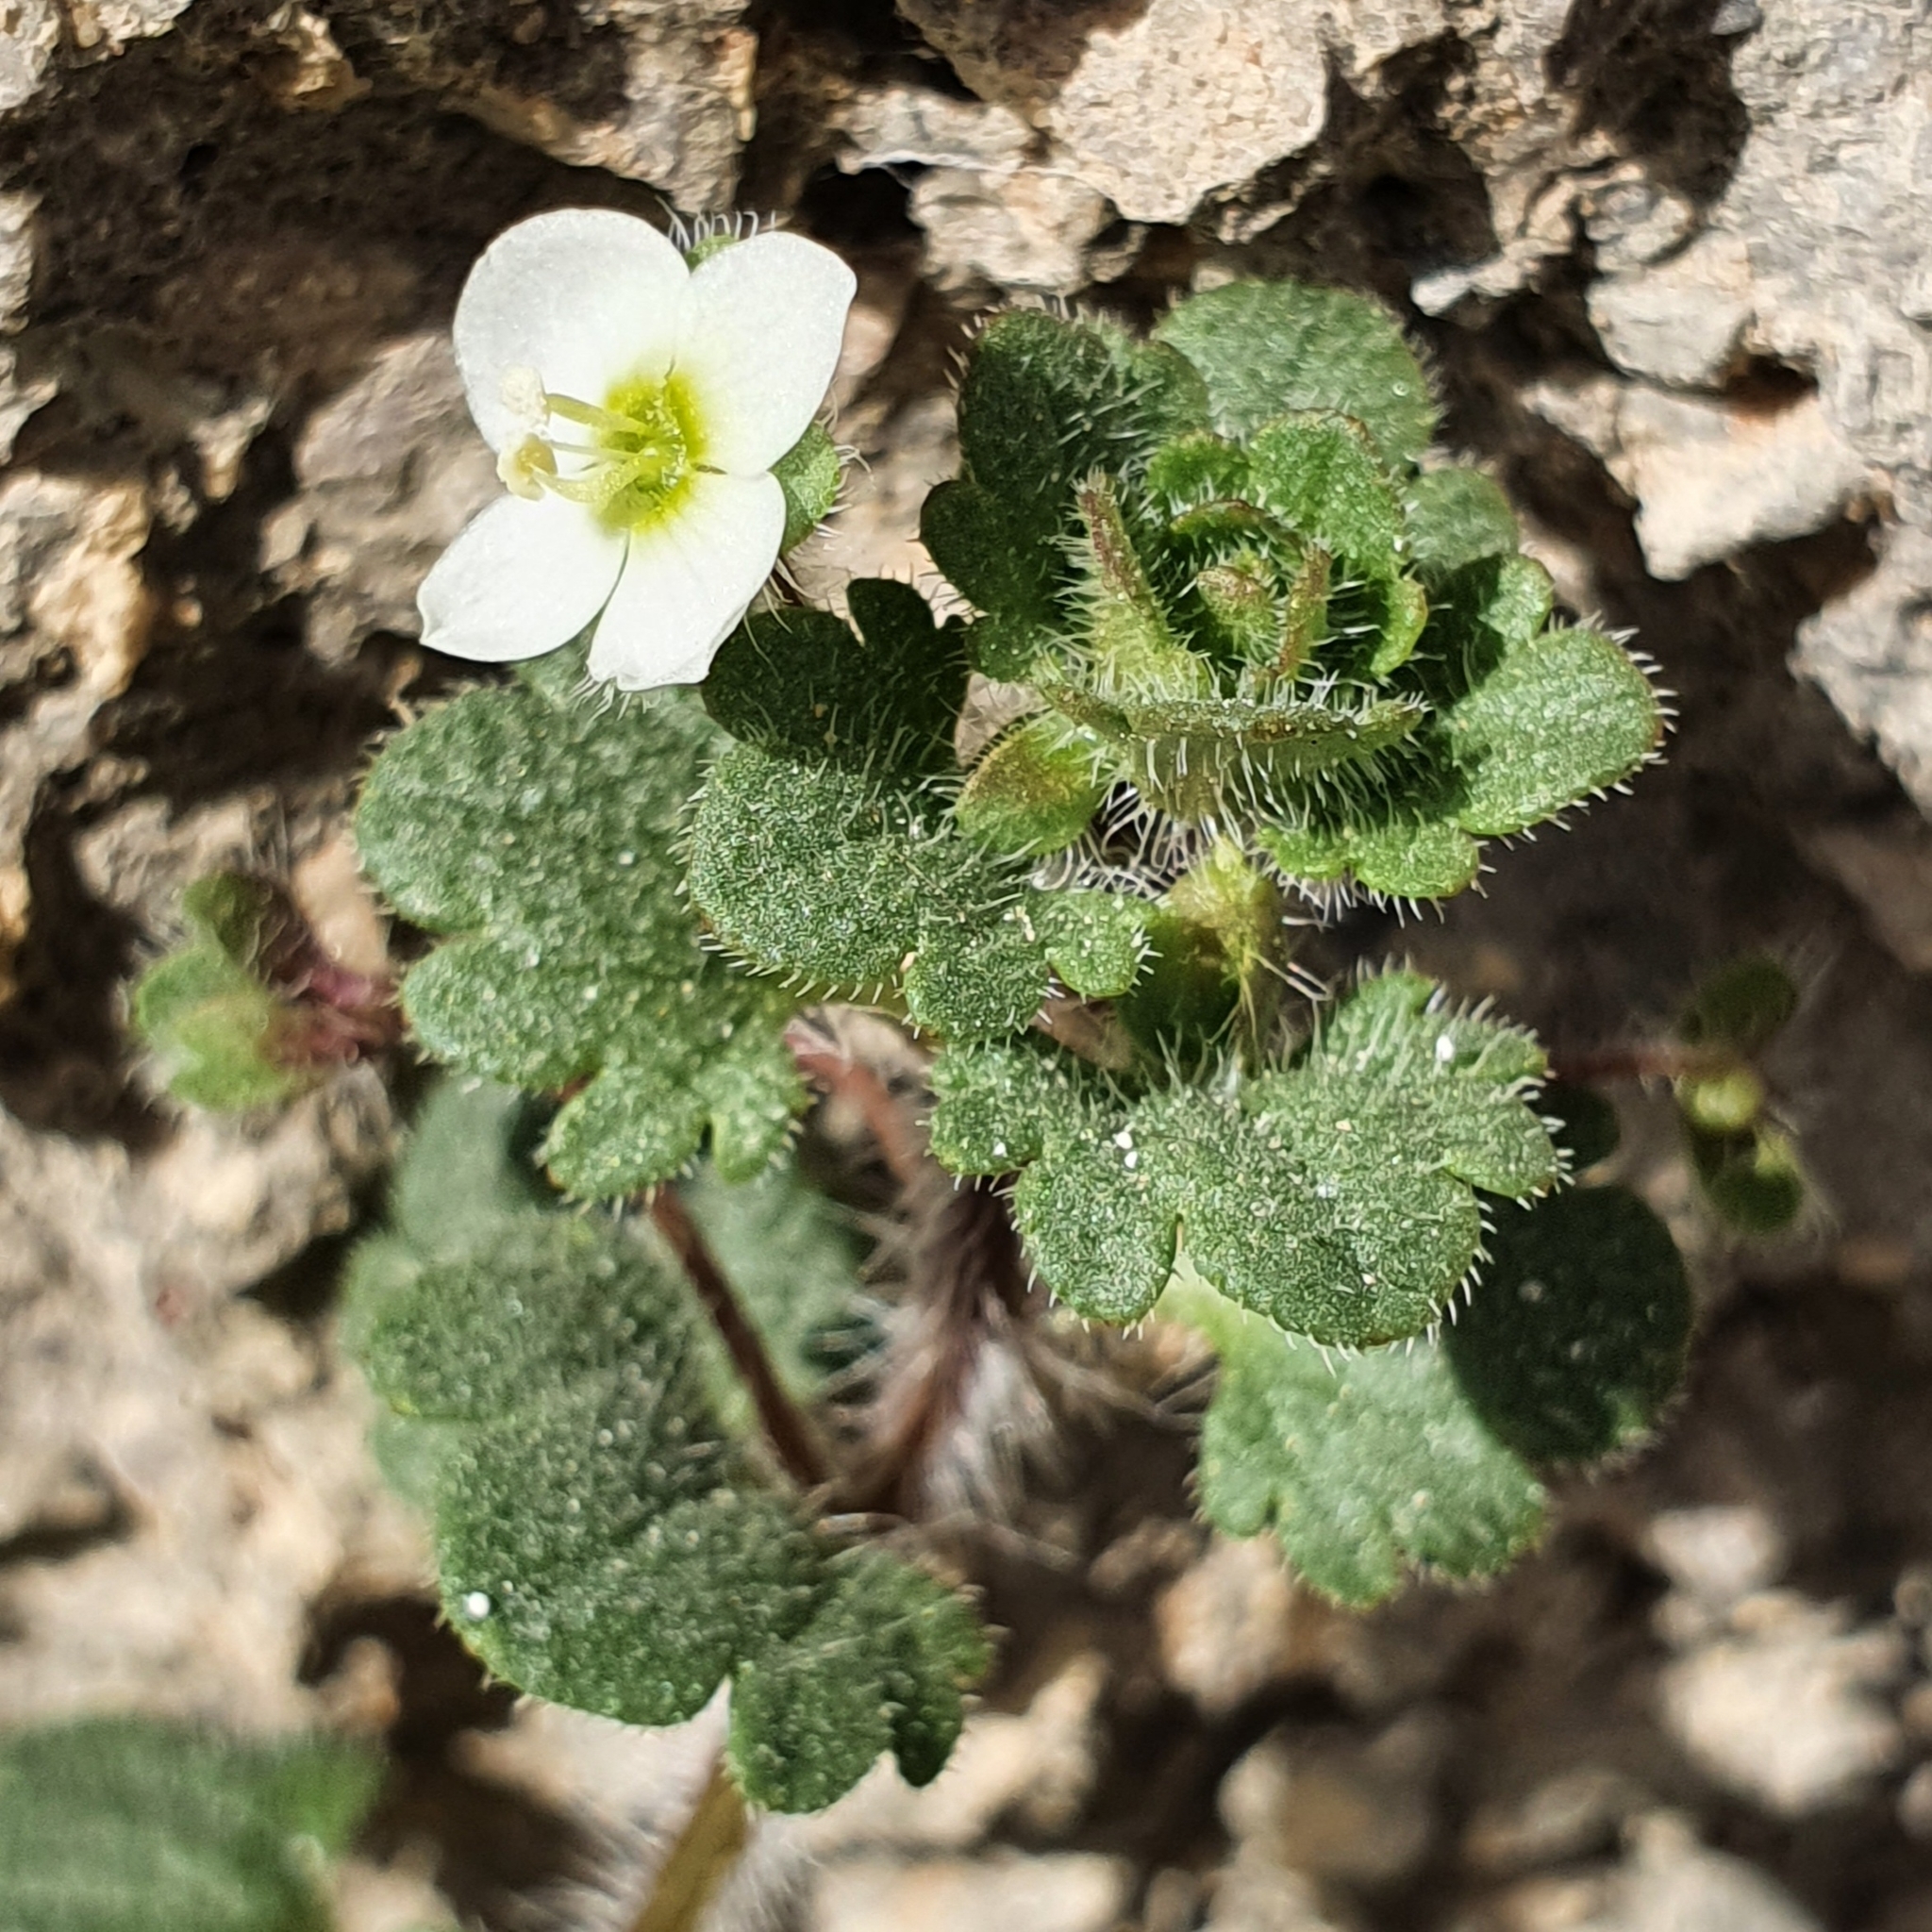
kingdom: Plantae
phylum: Tracheophyta
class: Magnoliopsida
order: Lamiales
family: Plantaginaceae
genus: Veronica
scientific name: Veronica cymbalaria
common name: Pale speedwell
